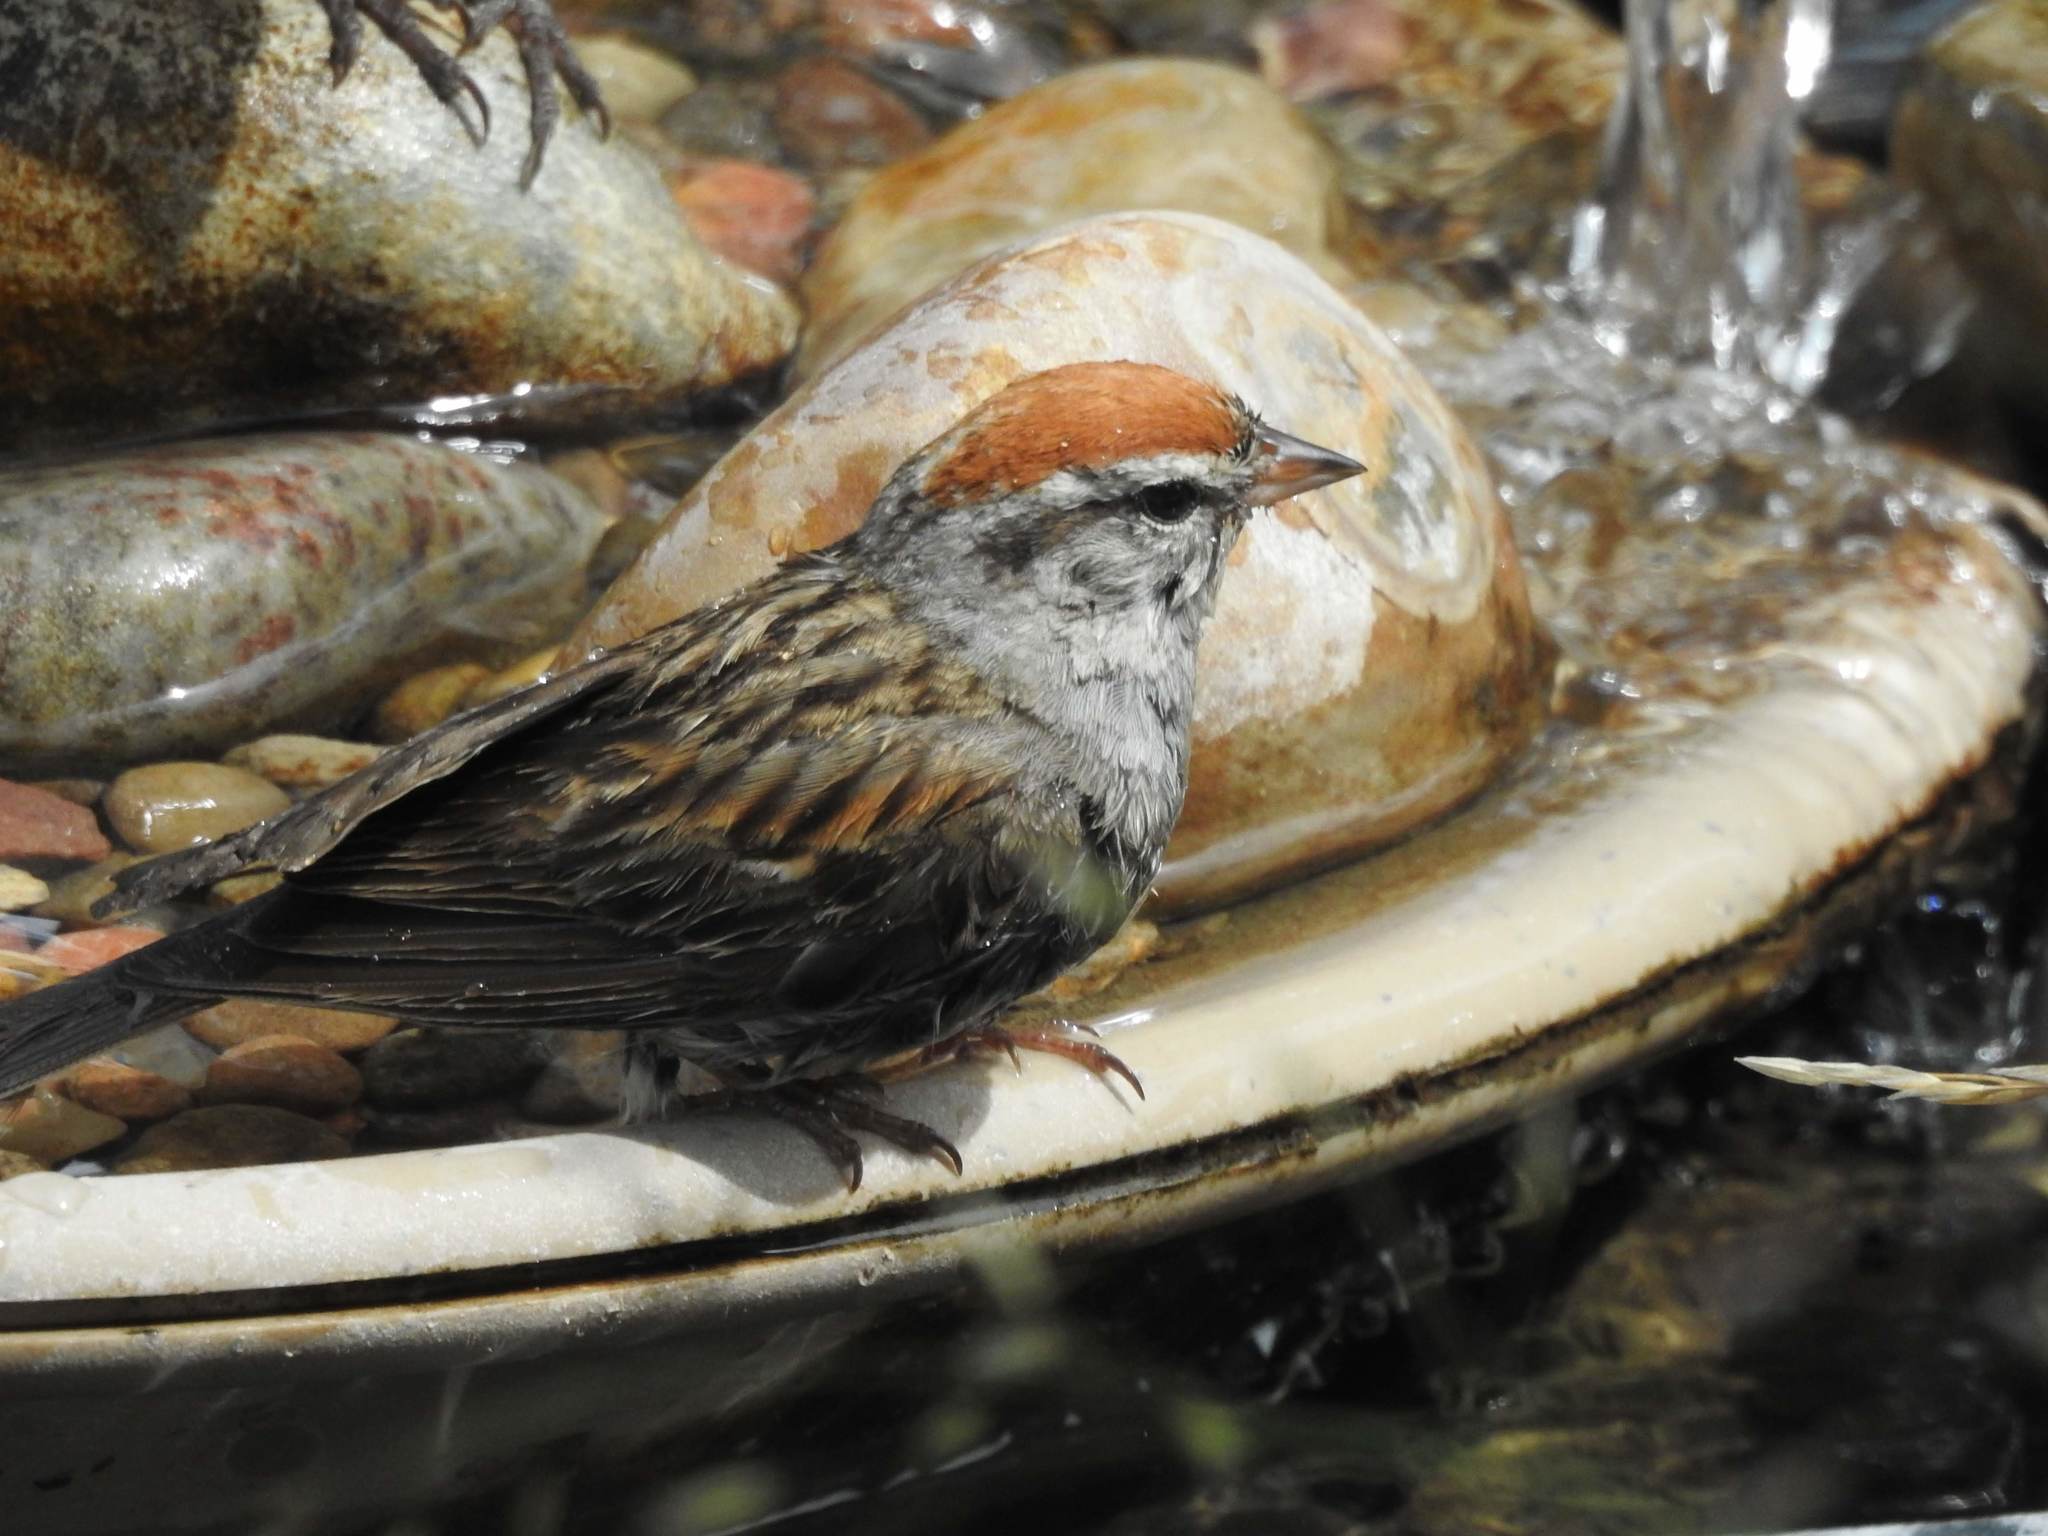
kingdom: Animalia
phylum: Chordata
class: Aves
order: Passeriformes
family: Passerellidae
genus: Spizella
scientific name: Spizella passerina
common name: Chipping sparrow
